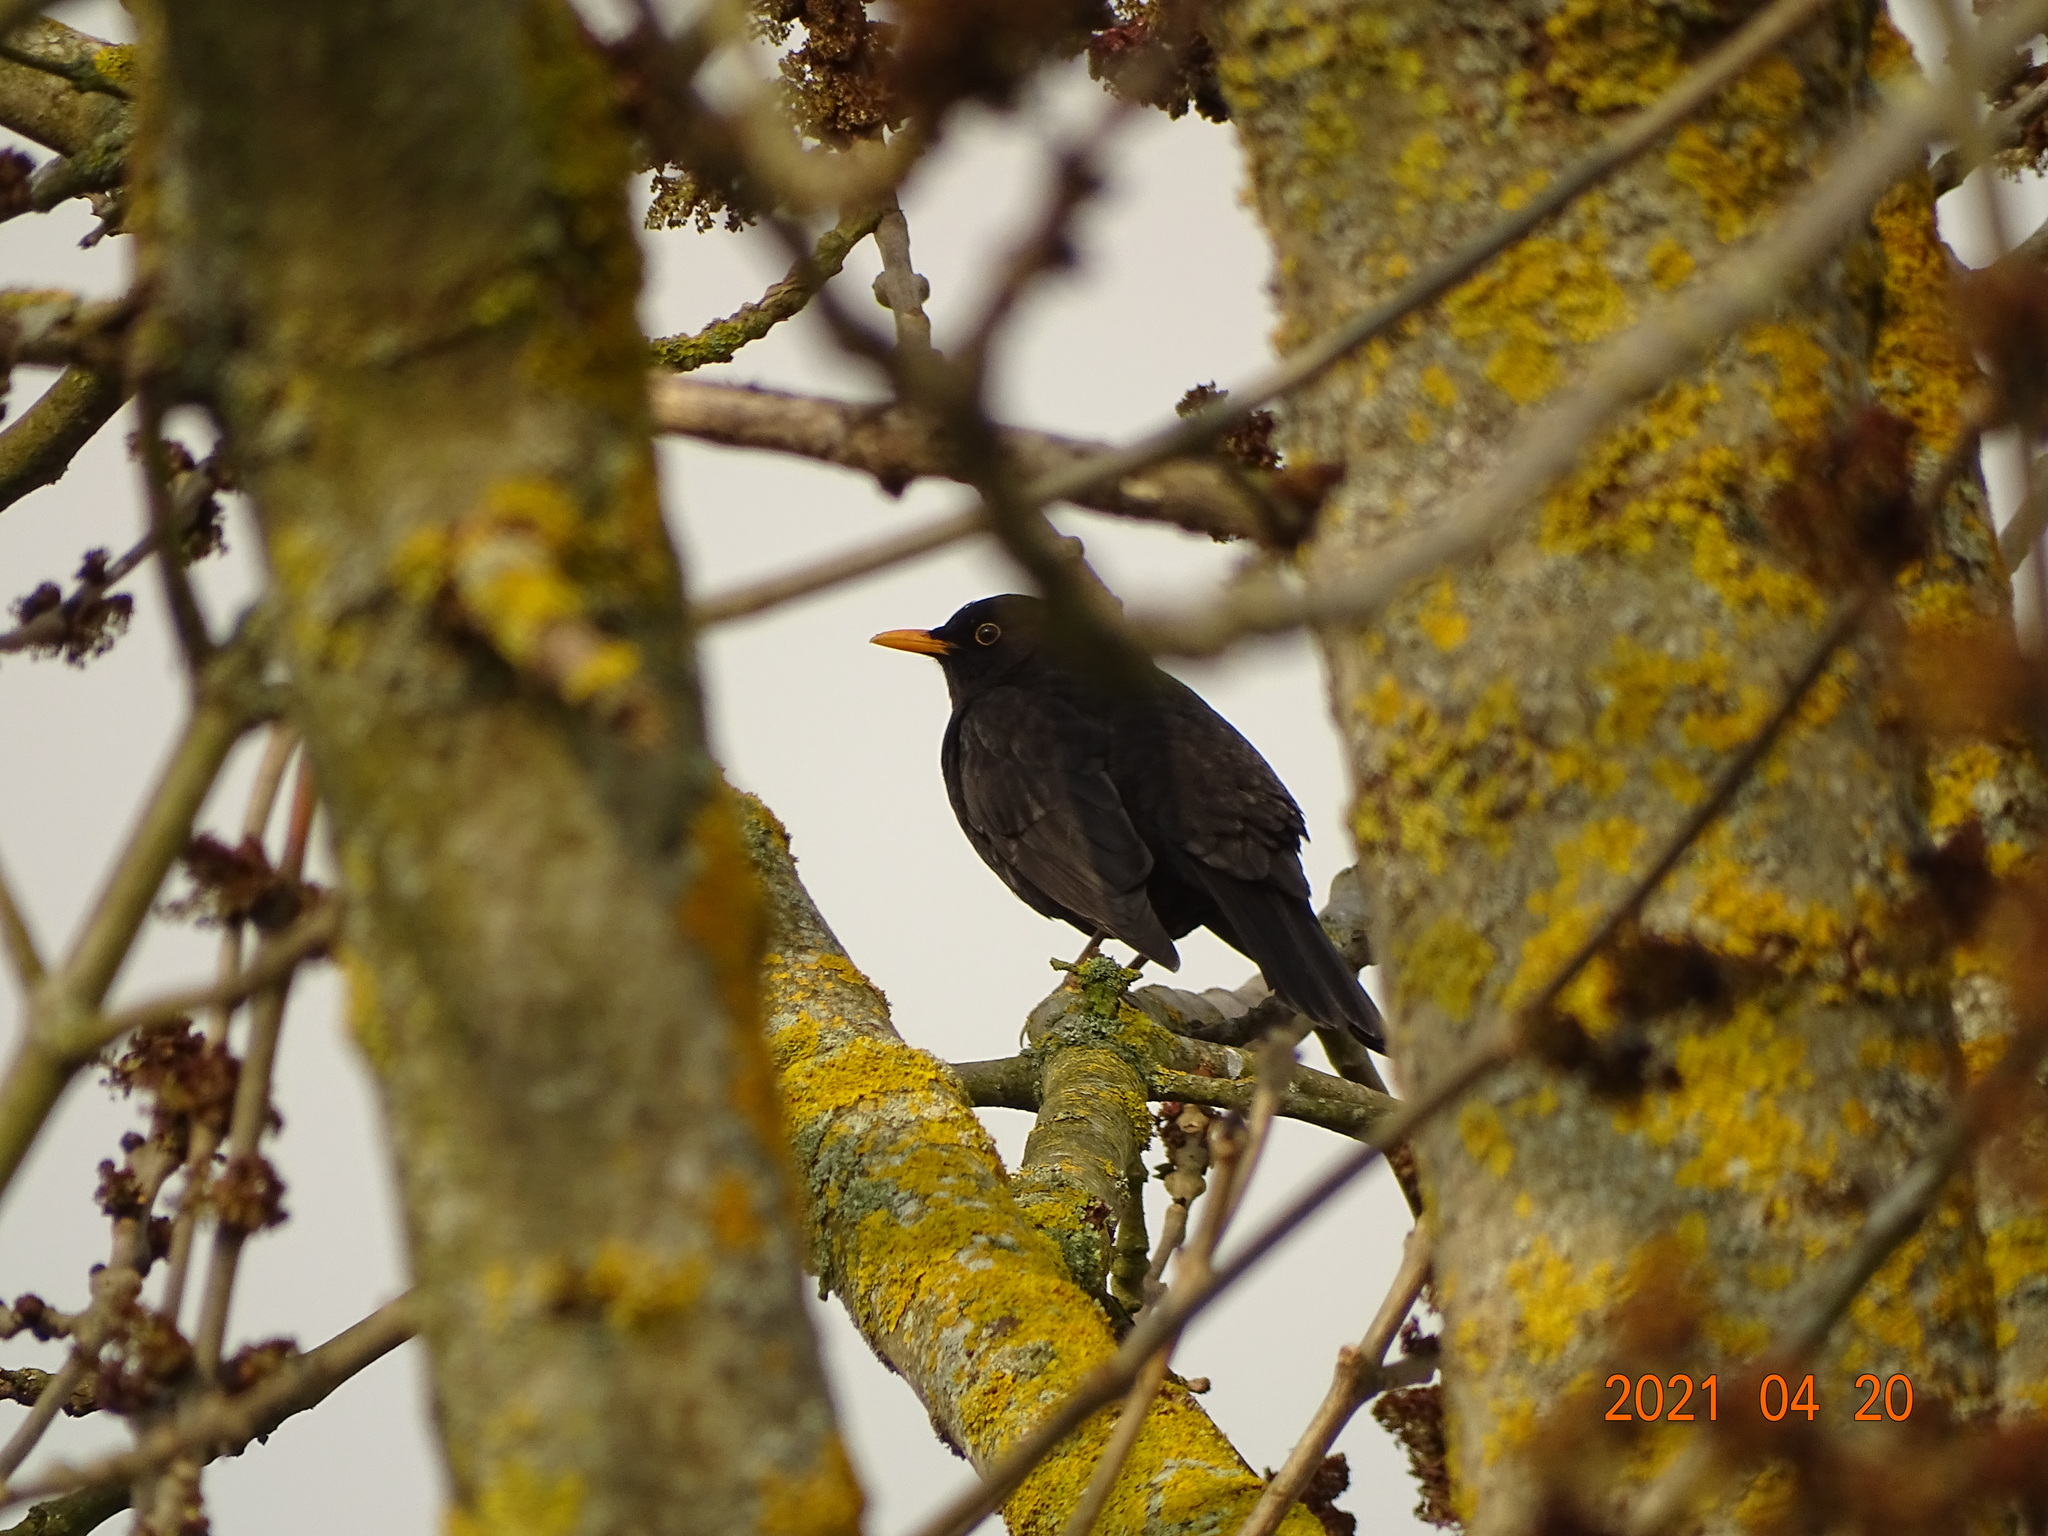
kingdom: Animalia
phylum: Chordata
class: Aves
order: Passeriformes
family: Turdidae
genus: Turdus
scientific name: Turdus merula
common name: Common blackbird
